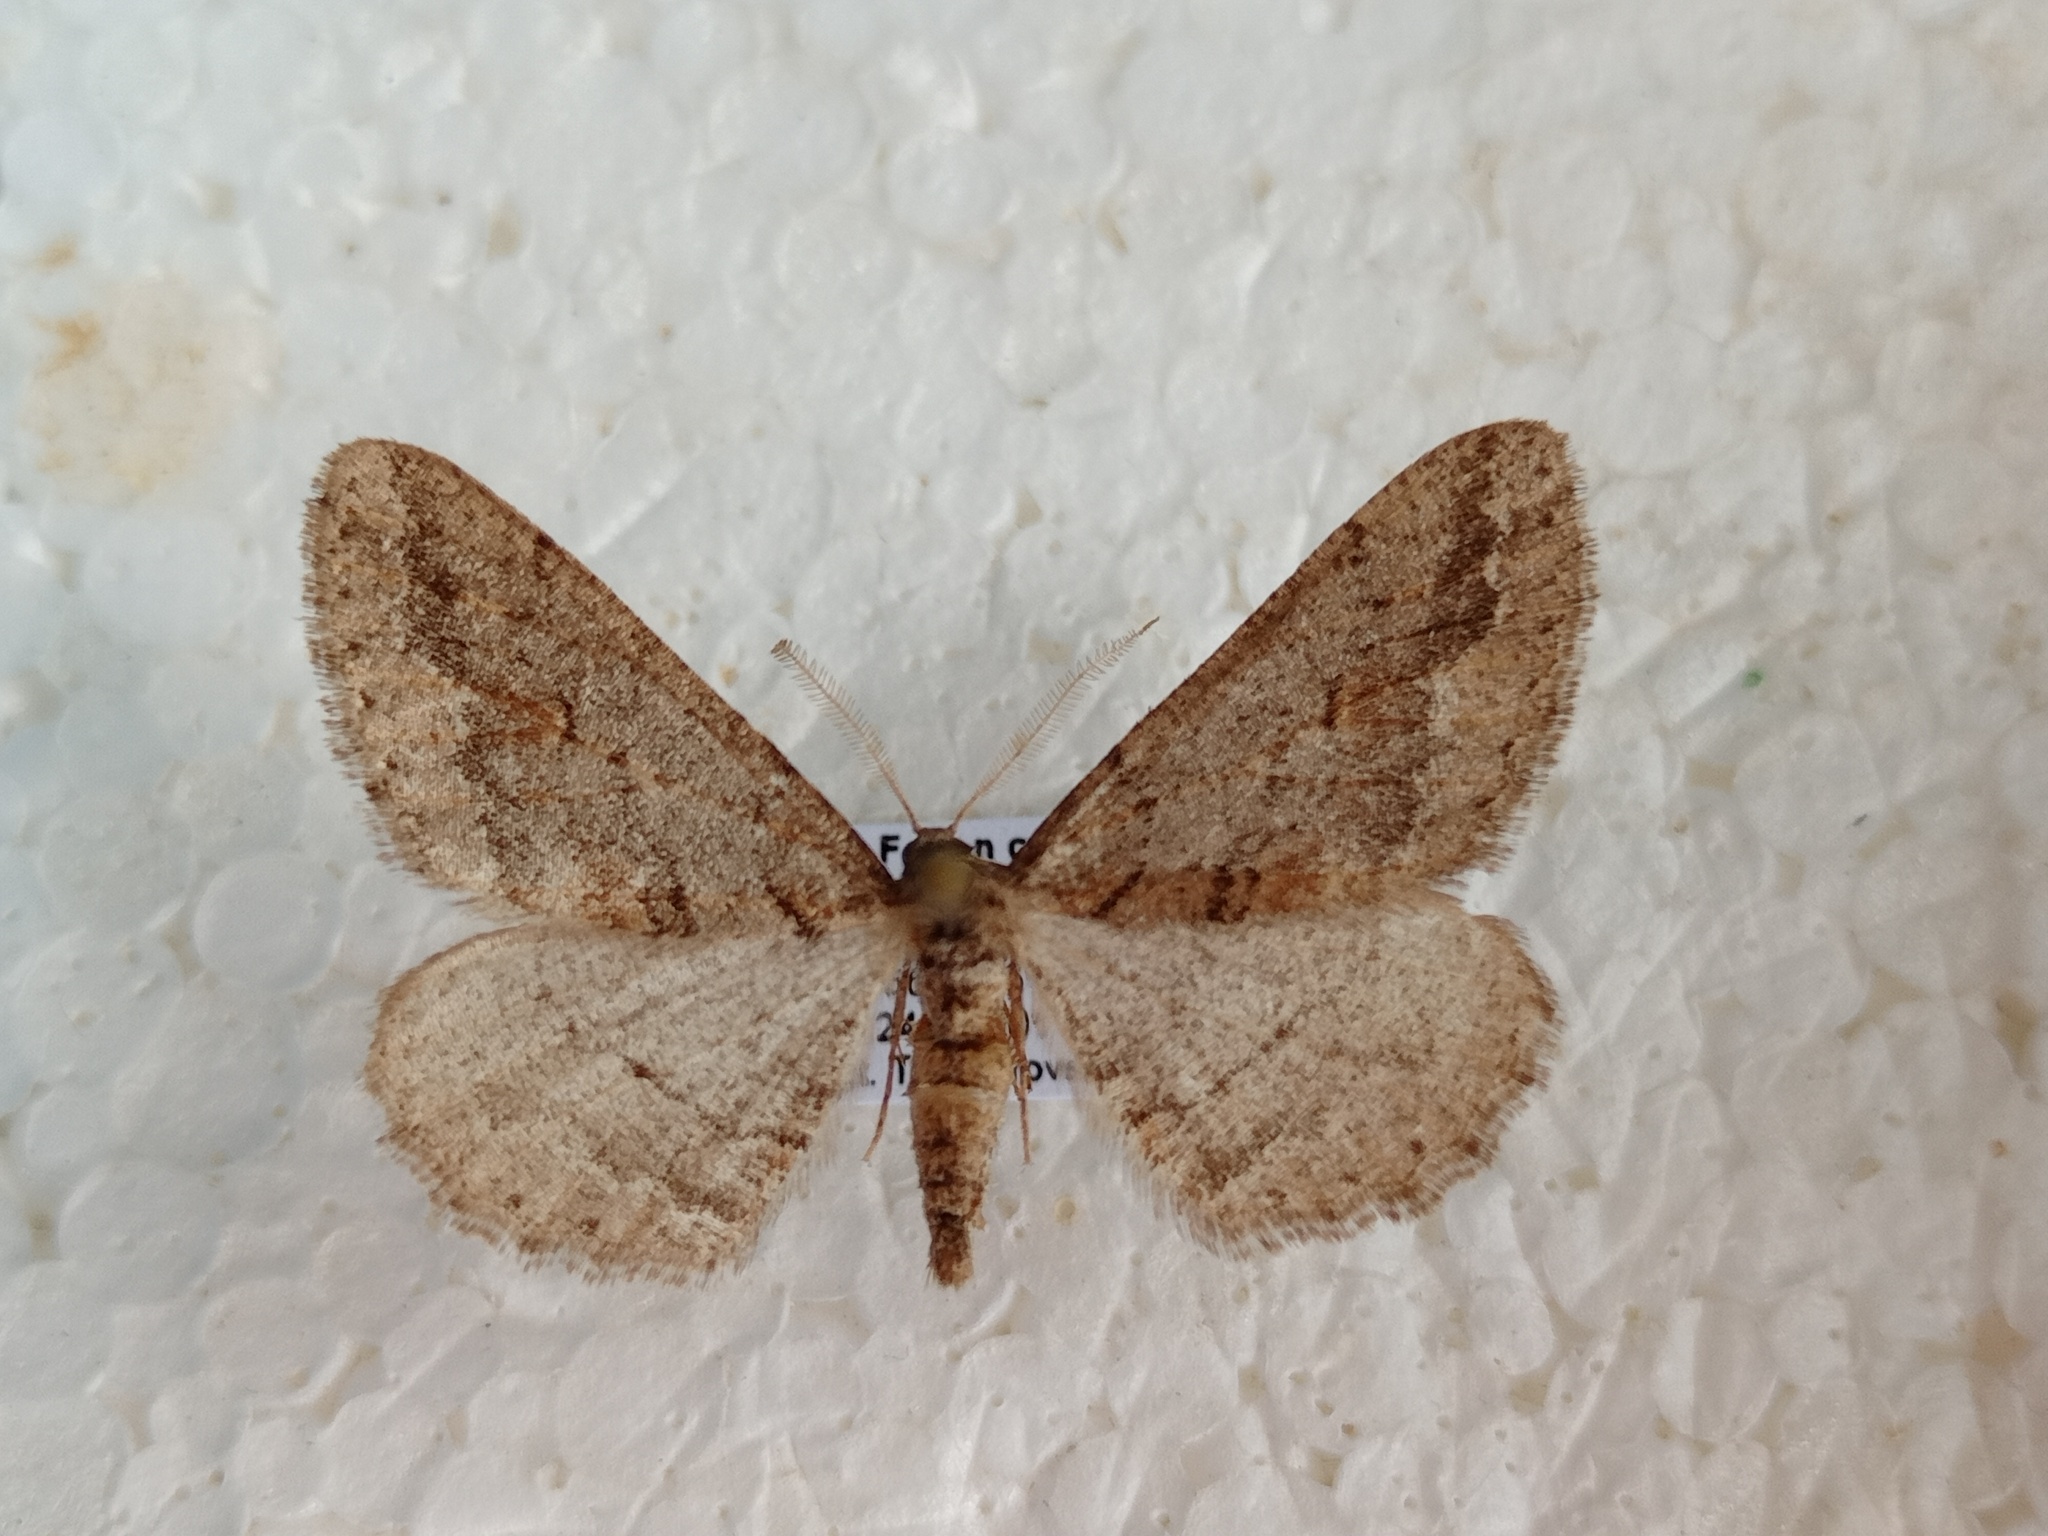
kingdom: Animalia
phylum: Arthropoda
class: Insecta
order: Lepidoptera
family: Geometridae
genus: Agriopis
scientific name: Agriopis bajaria
